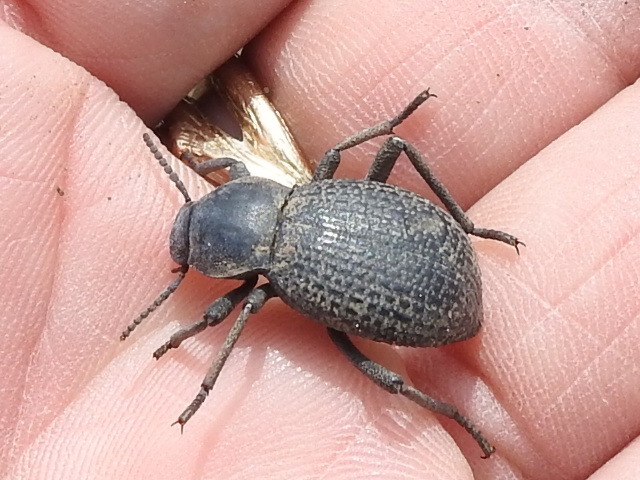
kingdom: Animalia
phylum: Arthropoda
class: Insecta
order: Coleoptera
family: Tenebrionidae
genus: Cryptoglossa
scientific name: Cryptoglossa infausta
